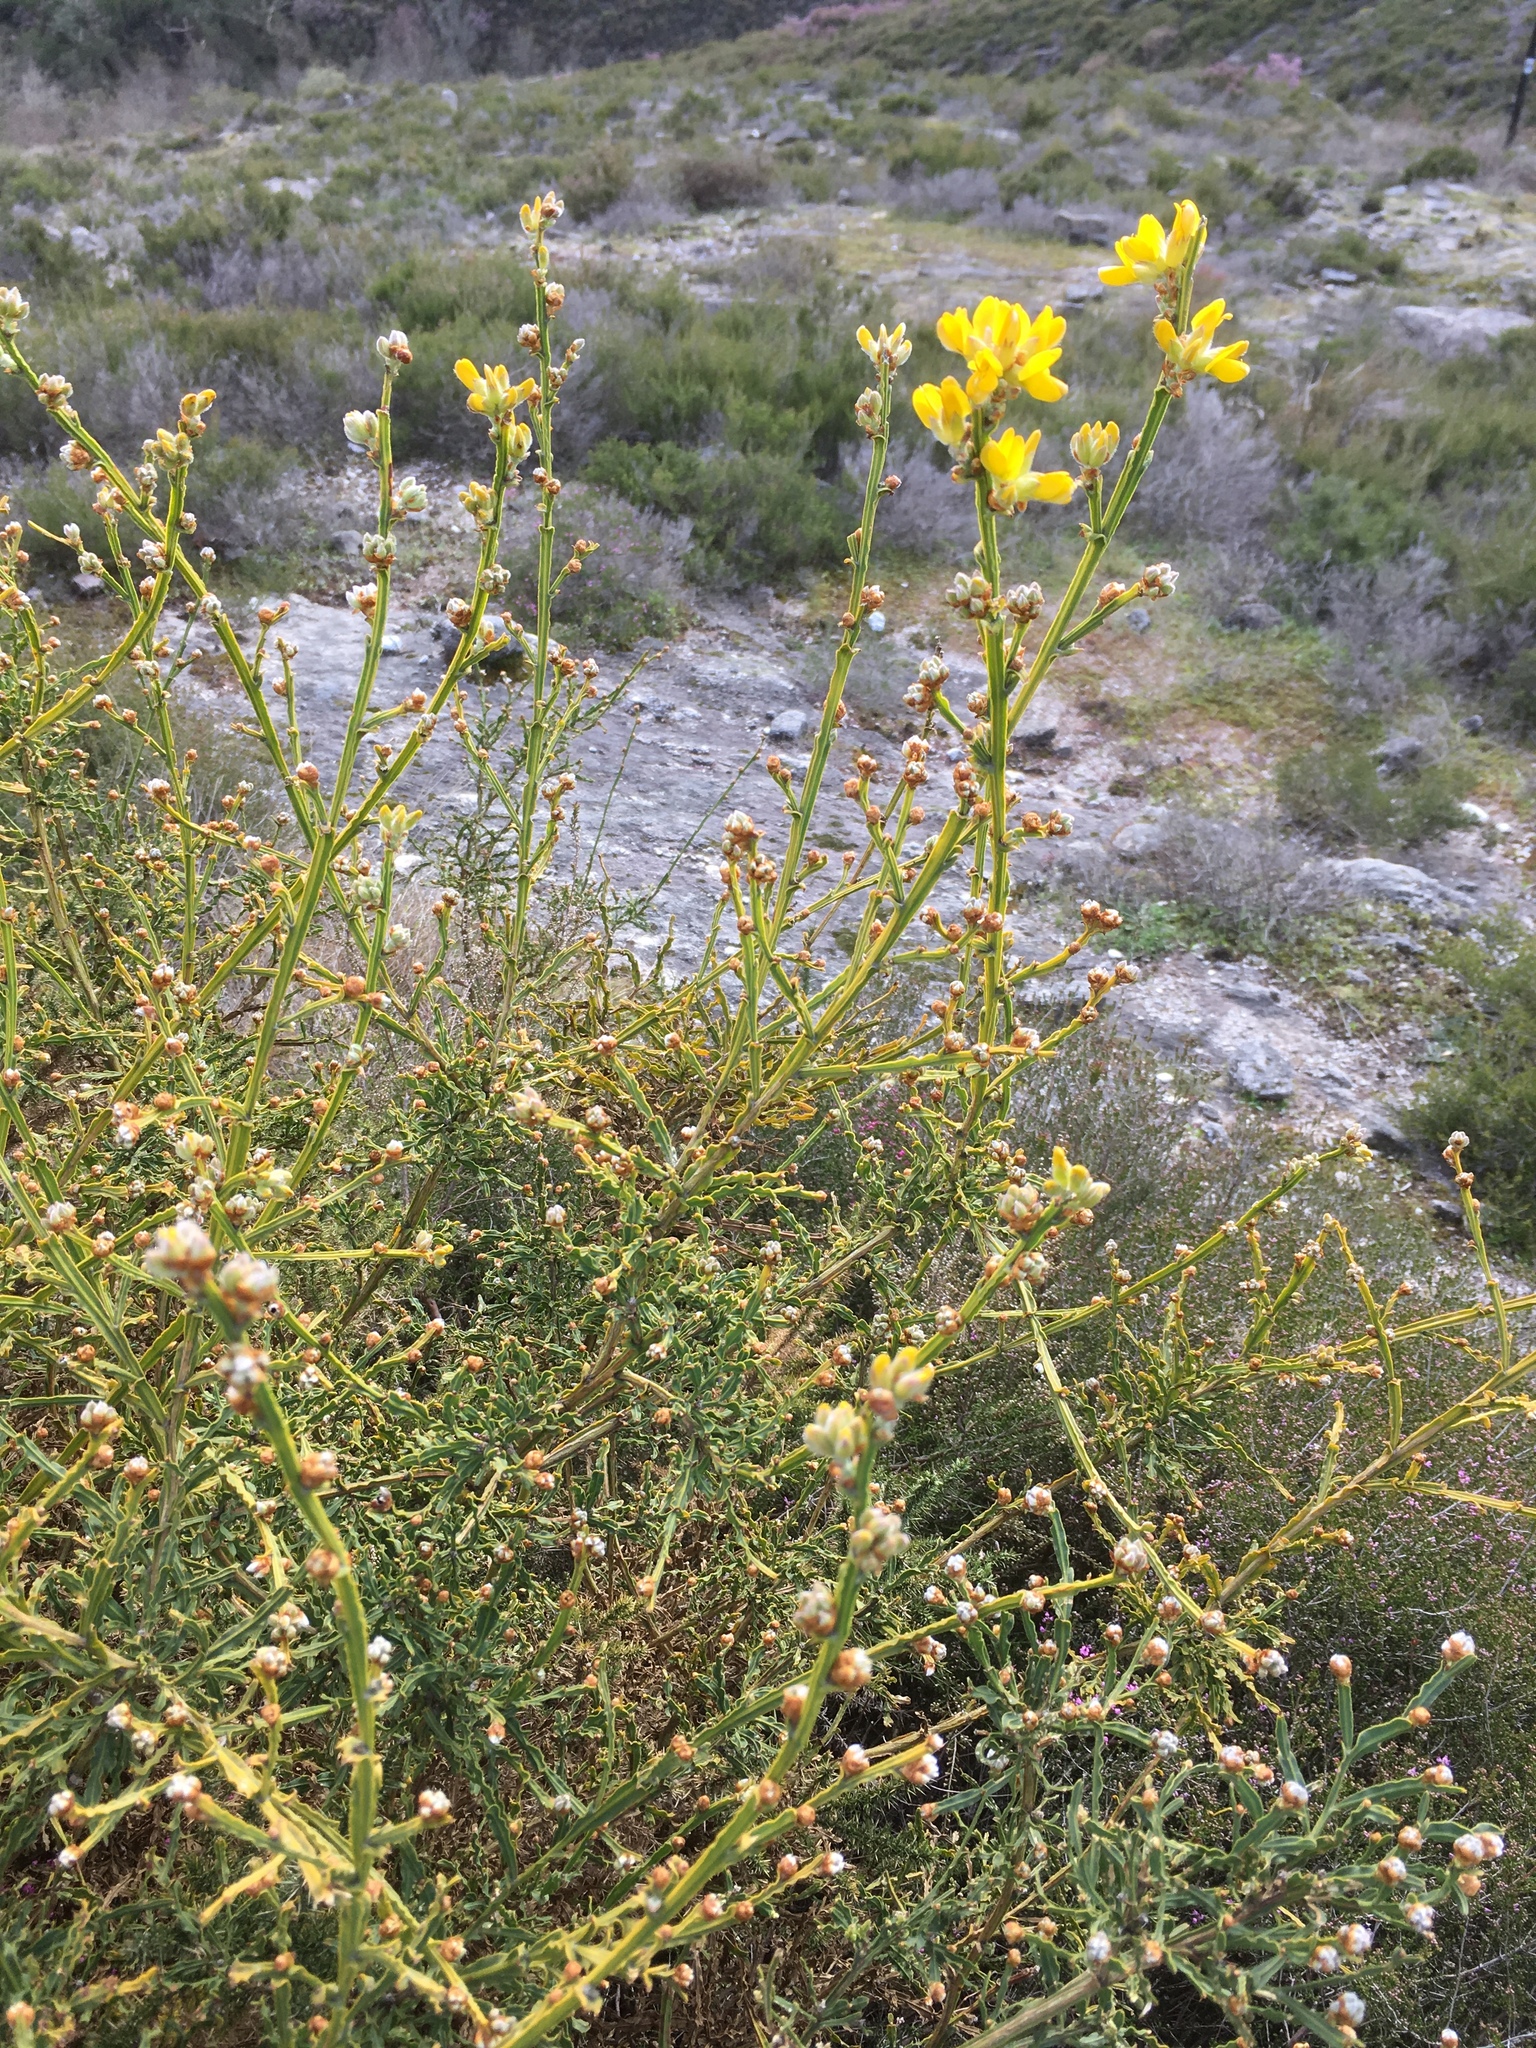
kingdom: Plantae
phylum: Tracheophyta
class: Magnoliopsida
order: Fabales
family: Fabaceae
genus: Genista
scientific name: Genista tridentata
